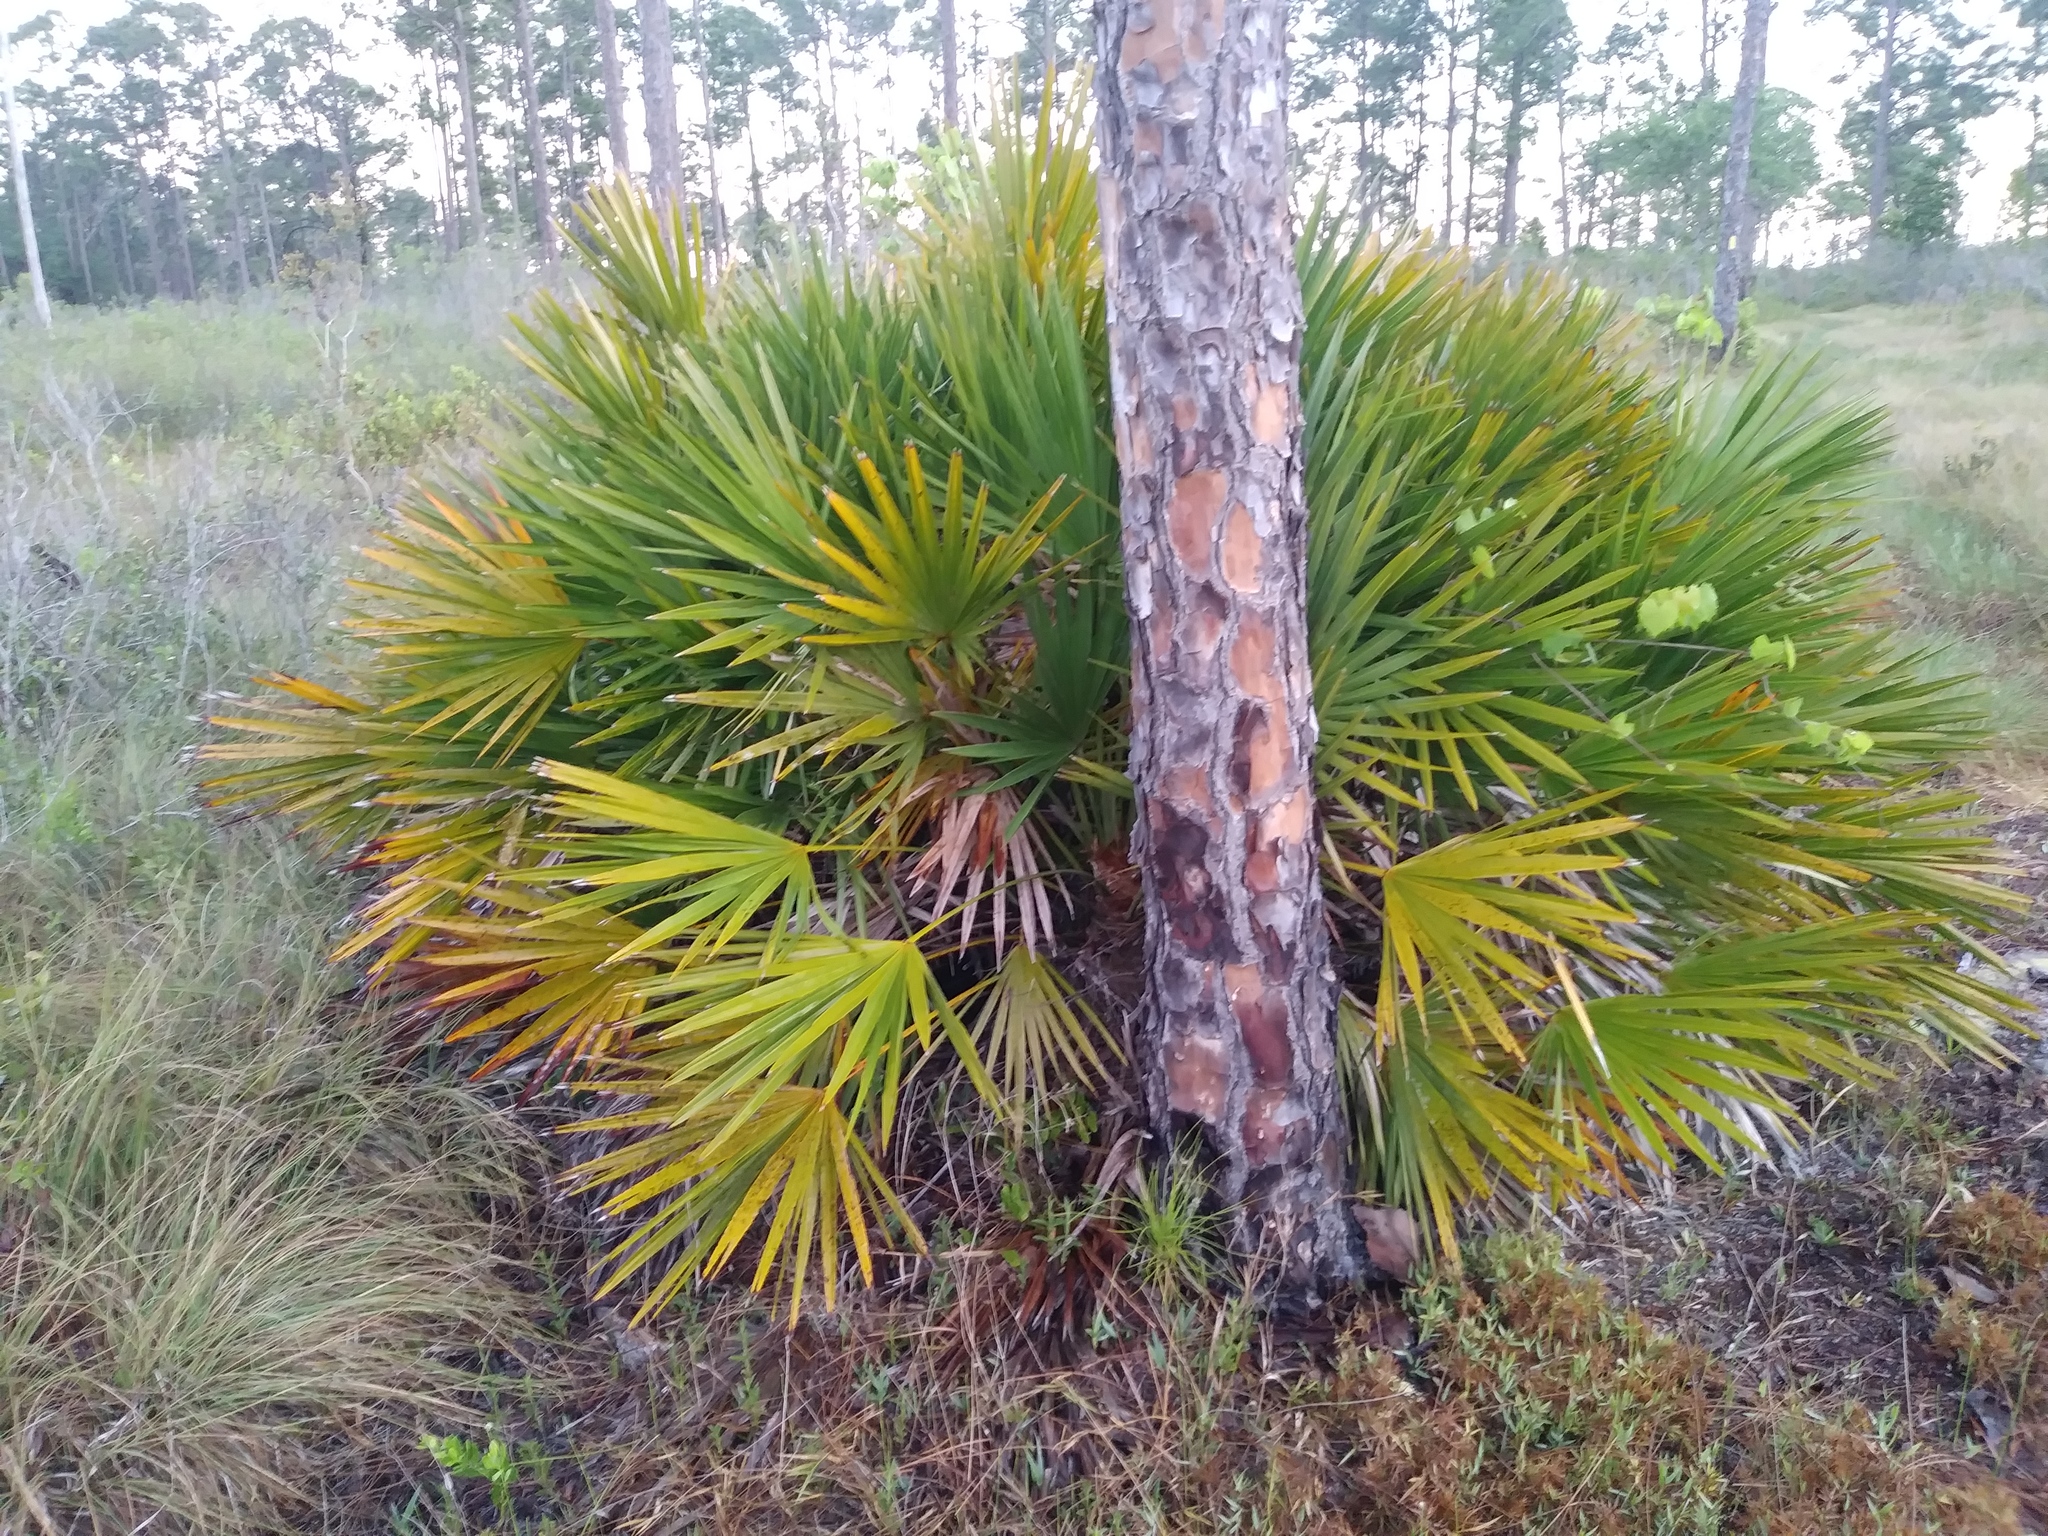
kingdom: Plantae
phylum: Tracheophyta
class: Liliopsida
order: Arecales
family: Arecaceae
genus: Serenoa
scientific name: Serenoa repens
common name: Saw-palmetto
